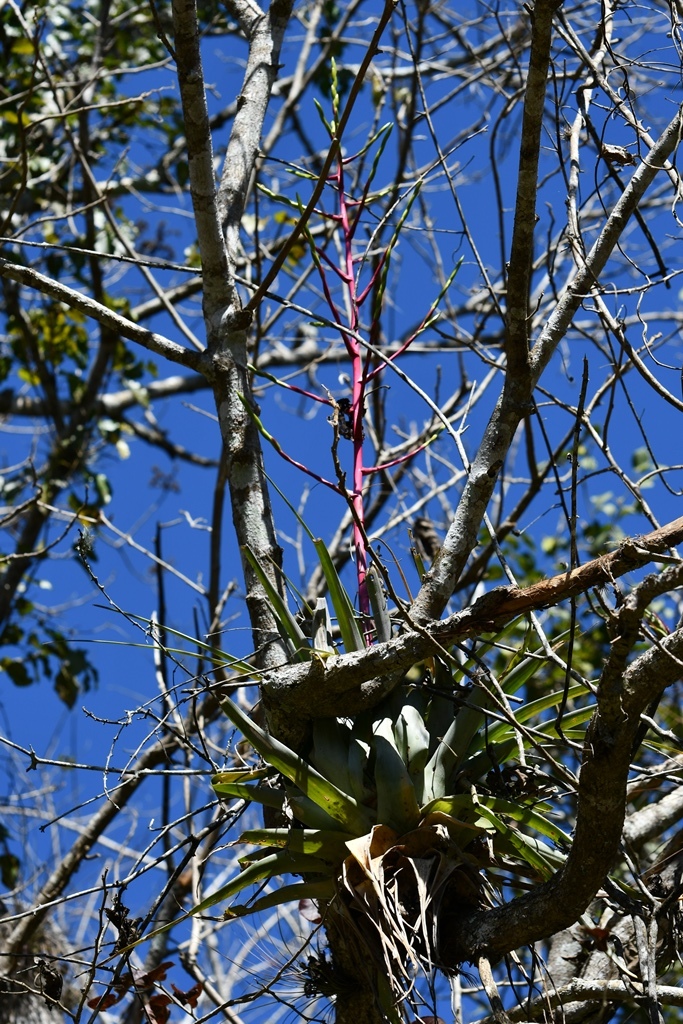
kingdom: Plantae
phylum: Tracheophyta
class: Liliopsida
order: Poales
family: Bromeliaceae
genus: Tillandsia
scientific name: Tillandsia elusiva
